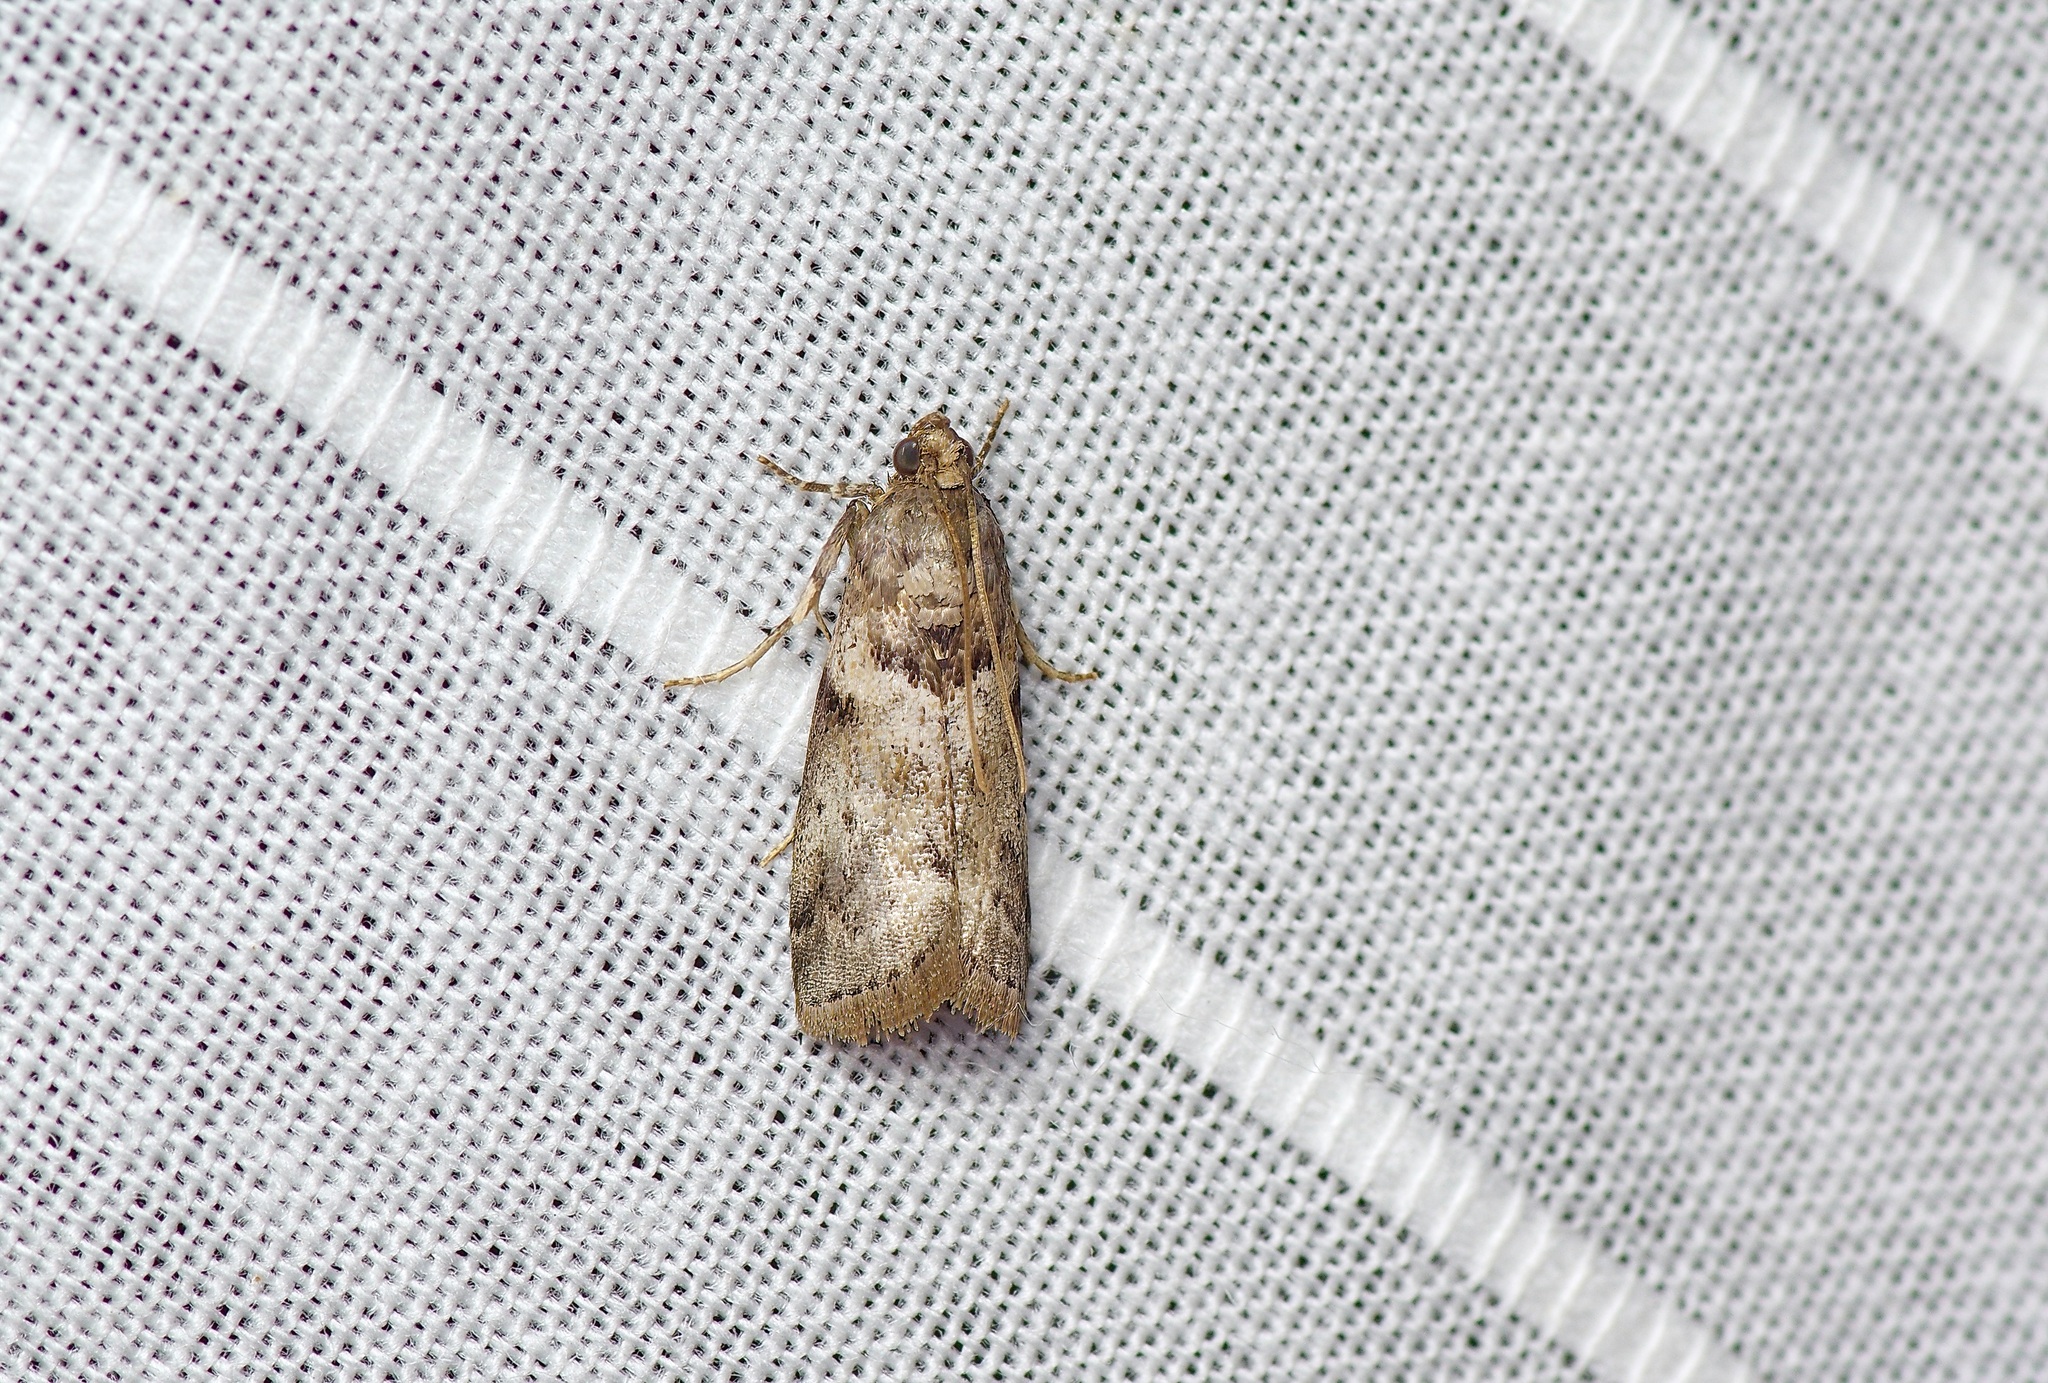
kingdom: Animalia
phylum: Arthropoda
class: Insecta
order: Lepidoptera
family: Pyralidae
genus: Salebriaria
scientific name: Salebriaria annulosella
